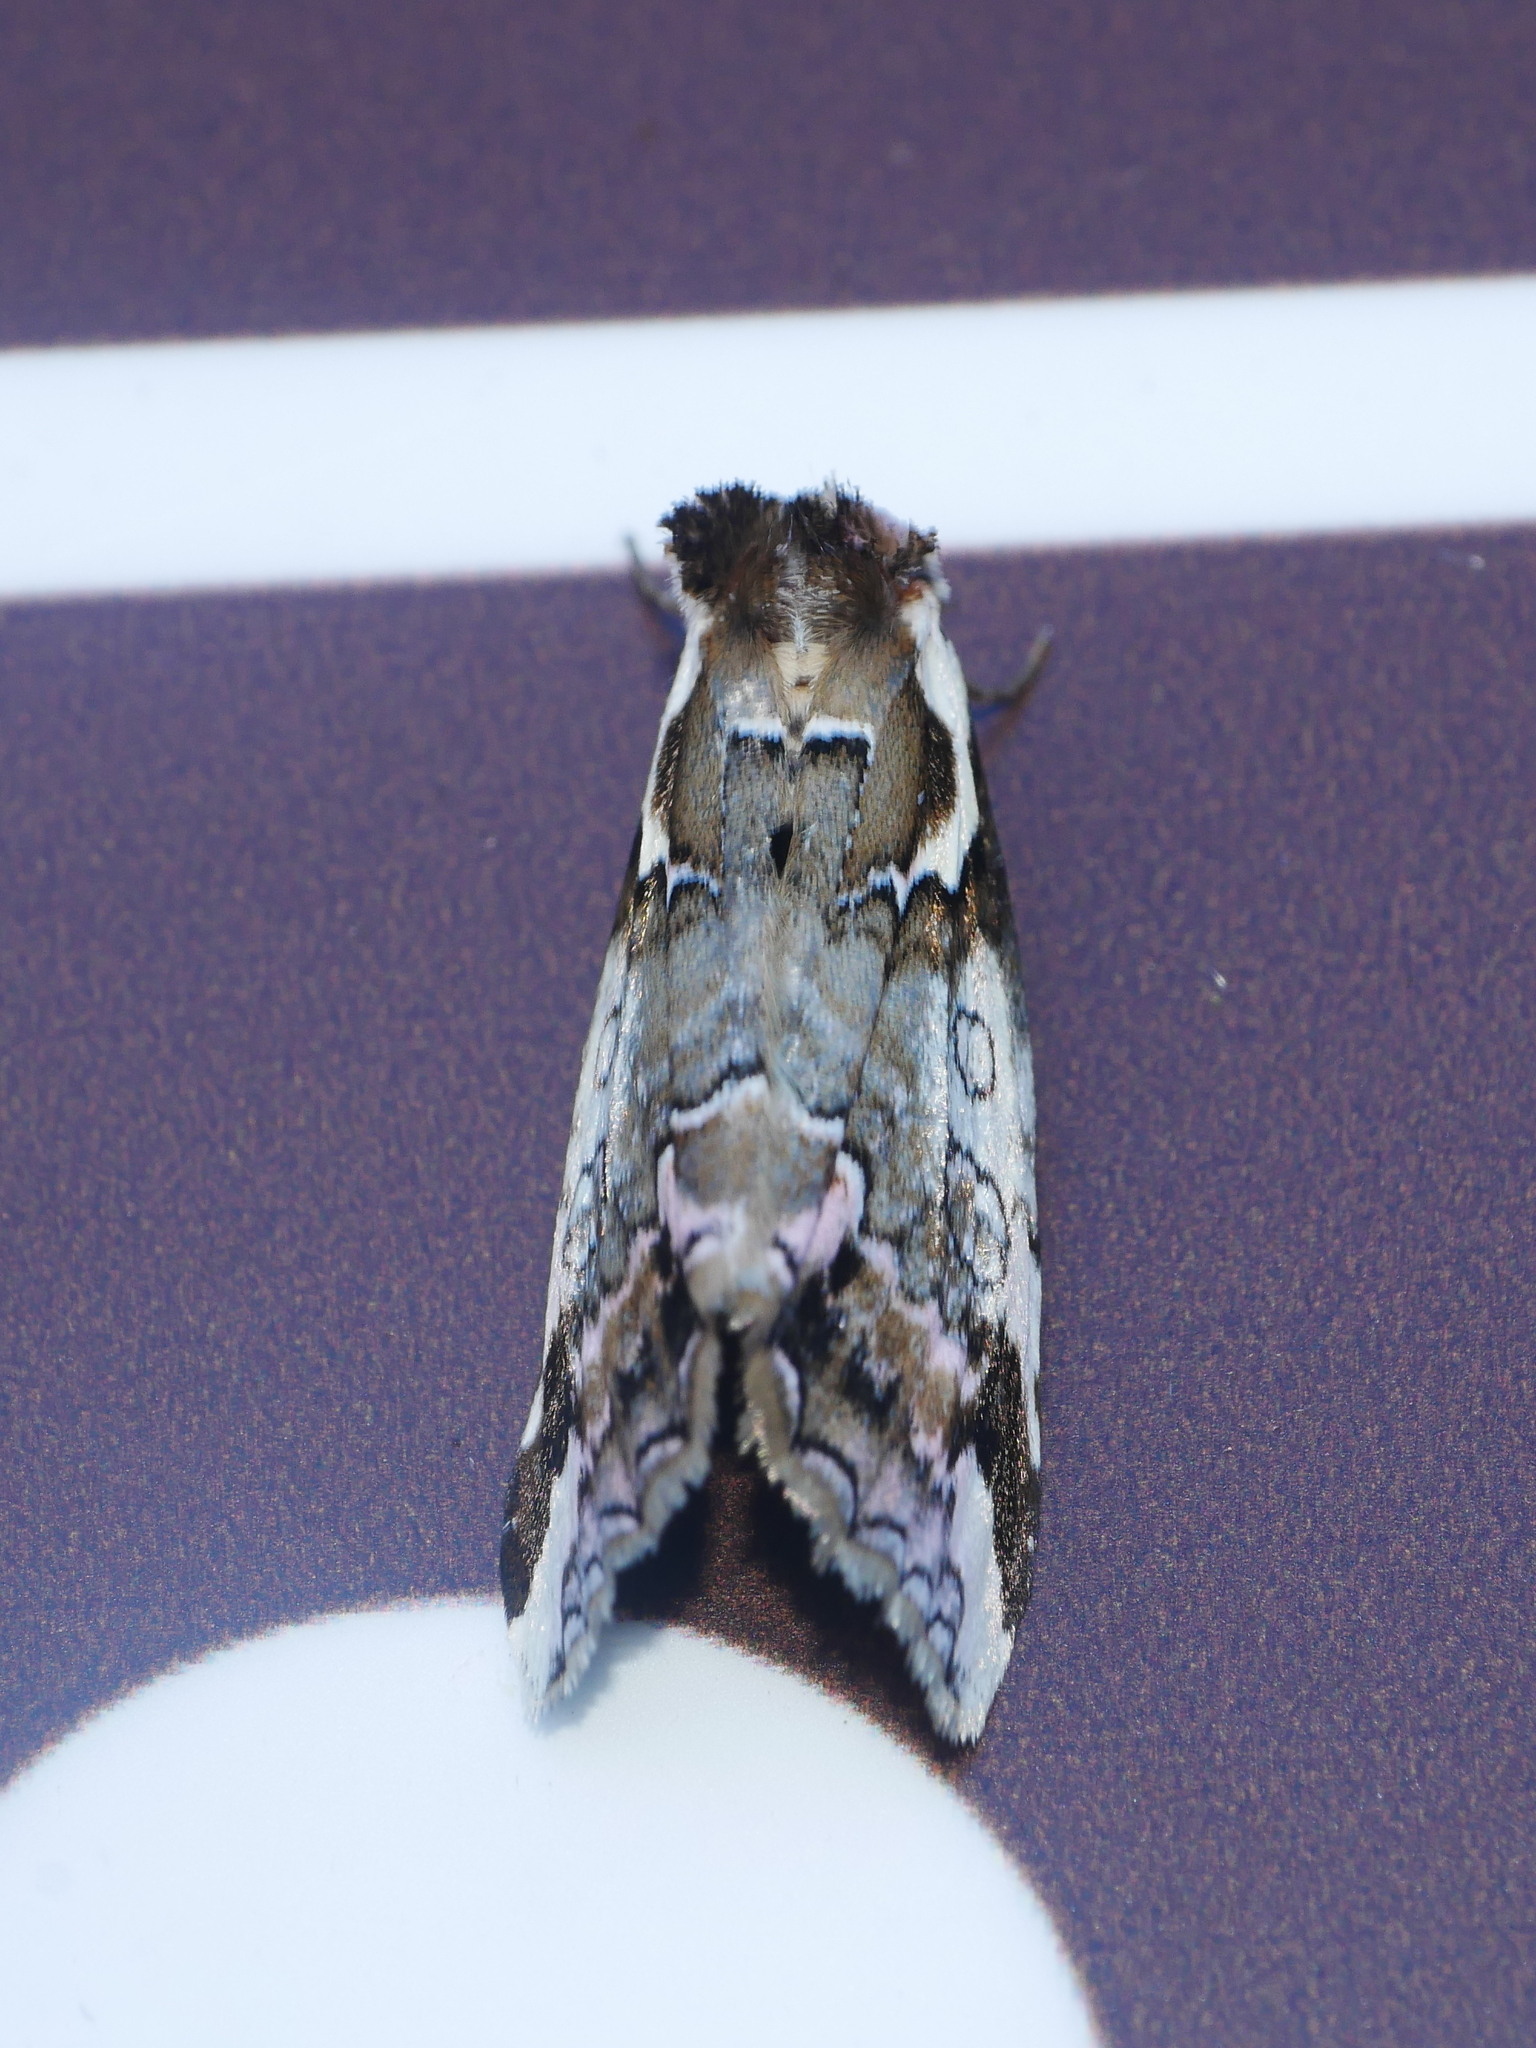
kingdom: Animalia
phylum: Arthropoda
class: Insecta
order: Lepidoptera
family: Drepanidae
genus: Psidopala
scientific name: Psidopala pennata
